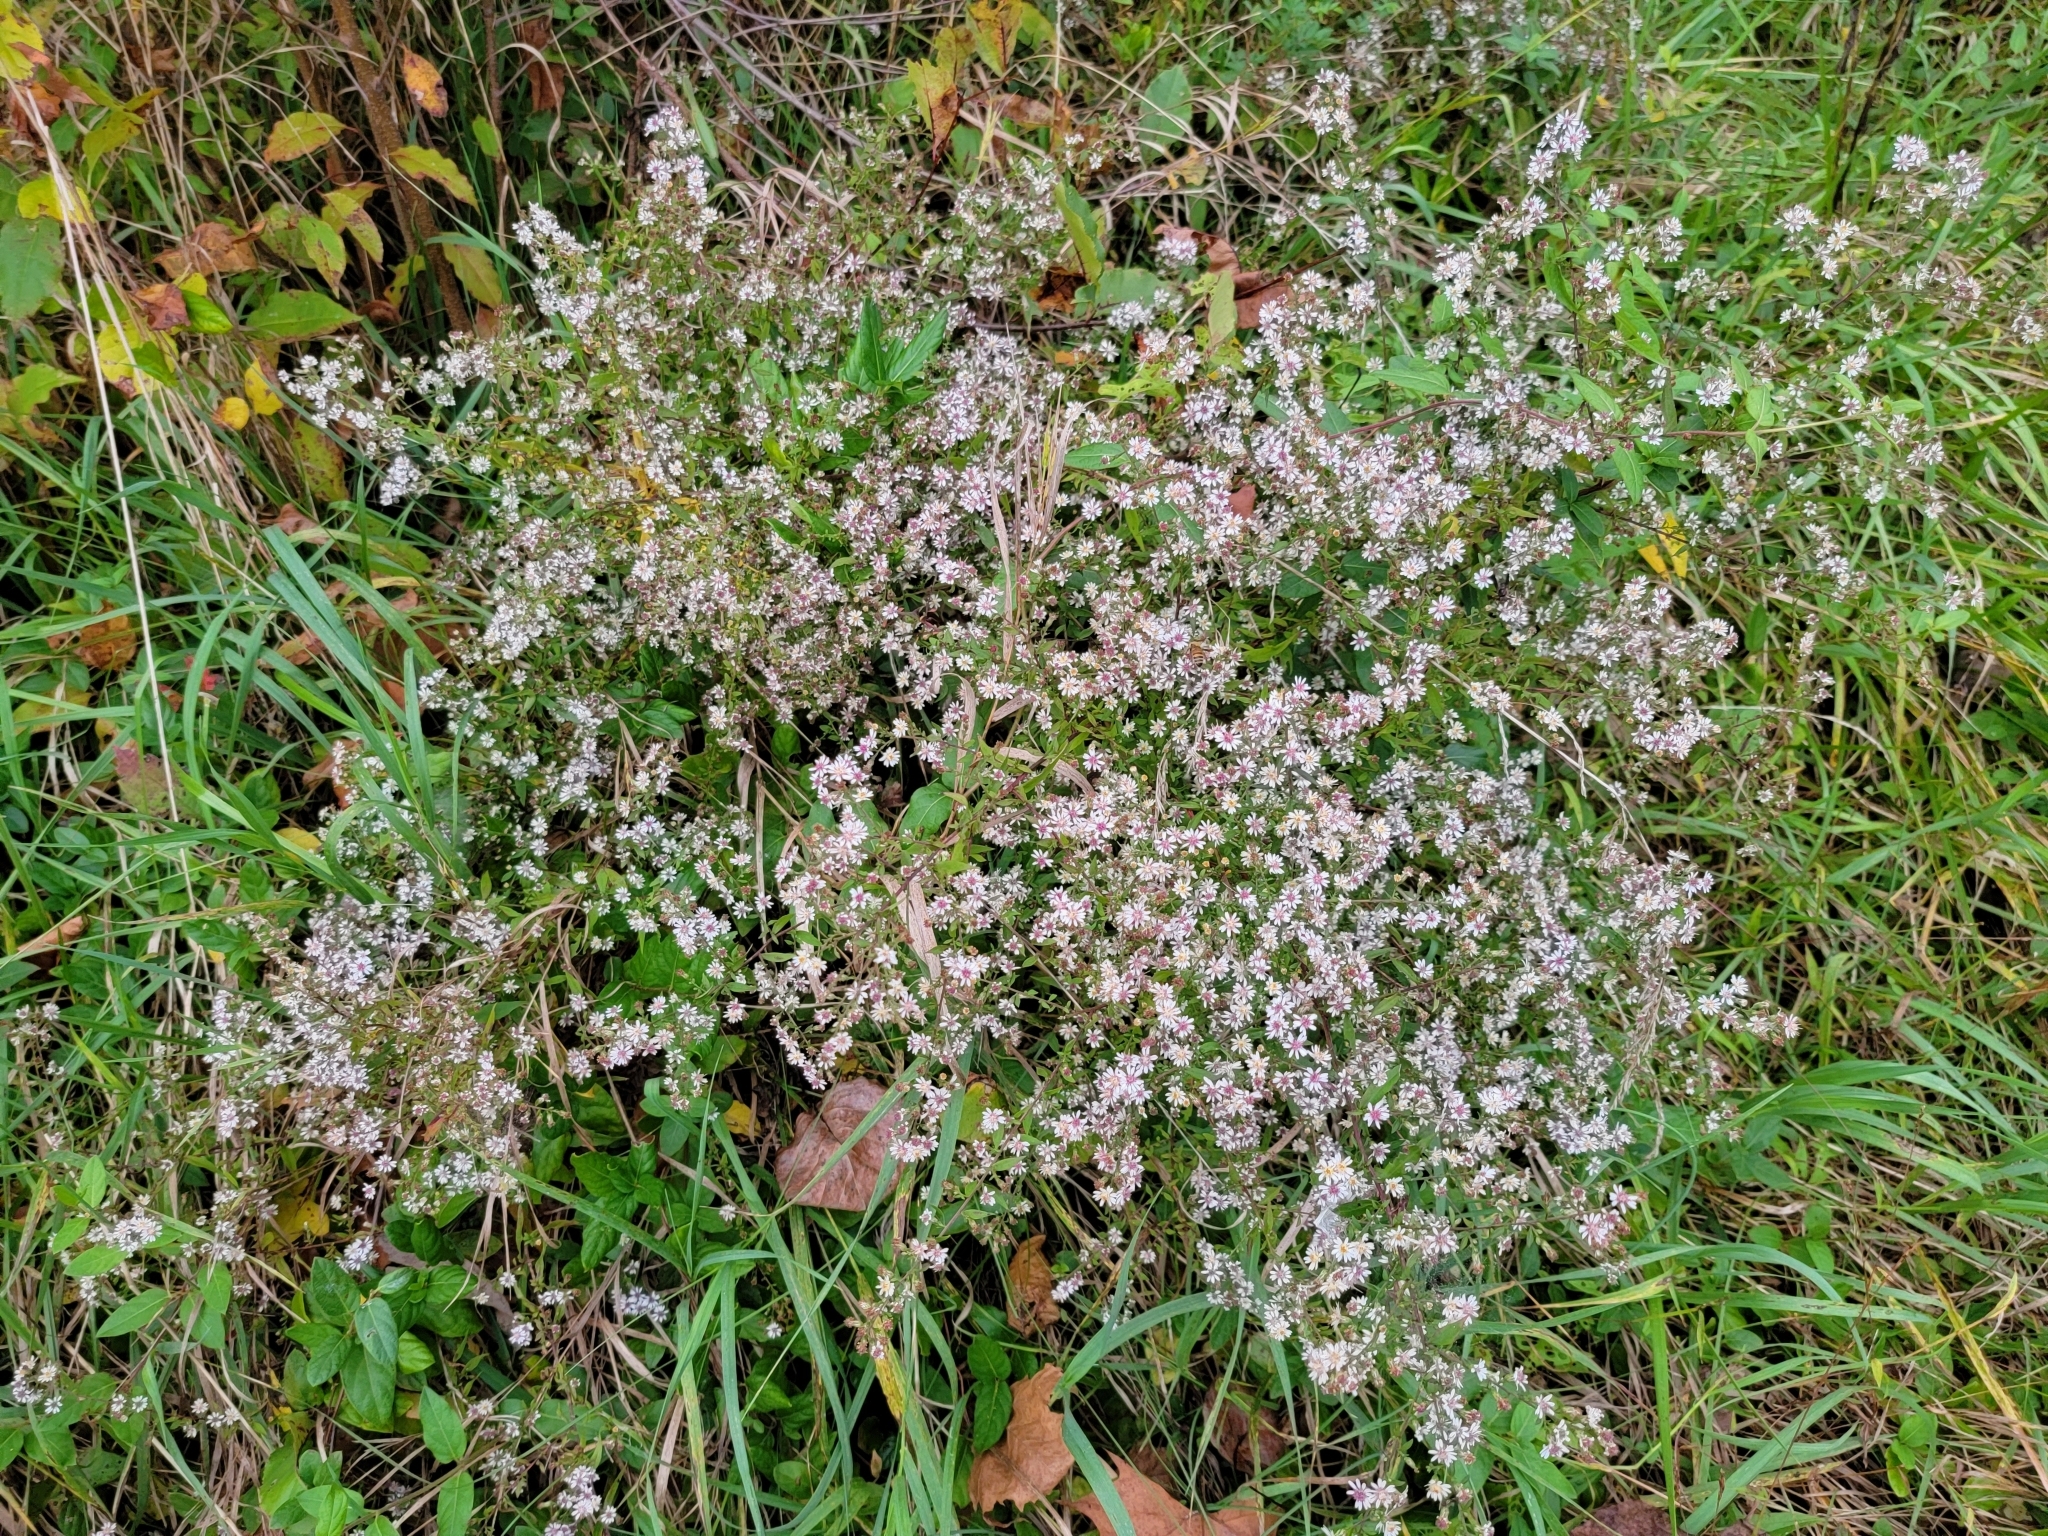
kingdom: Plantae
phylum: Tracheophyta
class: Magnoliopsida
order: Asterales
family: Asteraceae
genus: Symphyotrichum
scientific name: Symphyotrichum lateriflorum
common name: Calico aster
